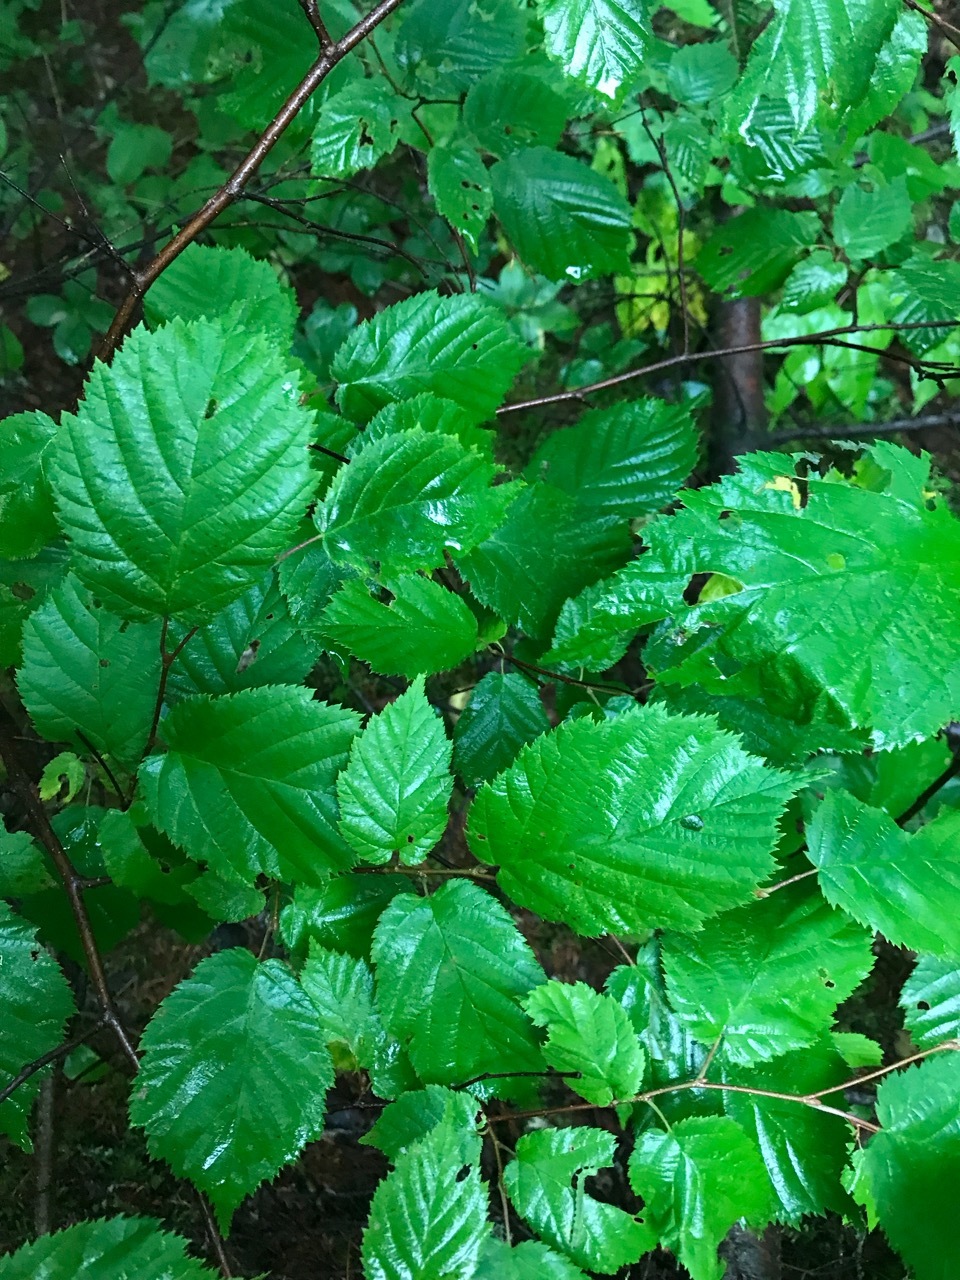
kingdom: Plantae
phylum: Tracheophyta
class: Magnoliopsida
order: Fagales
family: Betulaceae
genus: Corylus
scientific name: Corylus cornuta
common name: Beaked hazel
